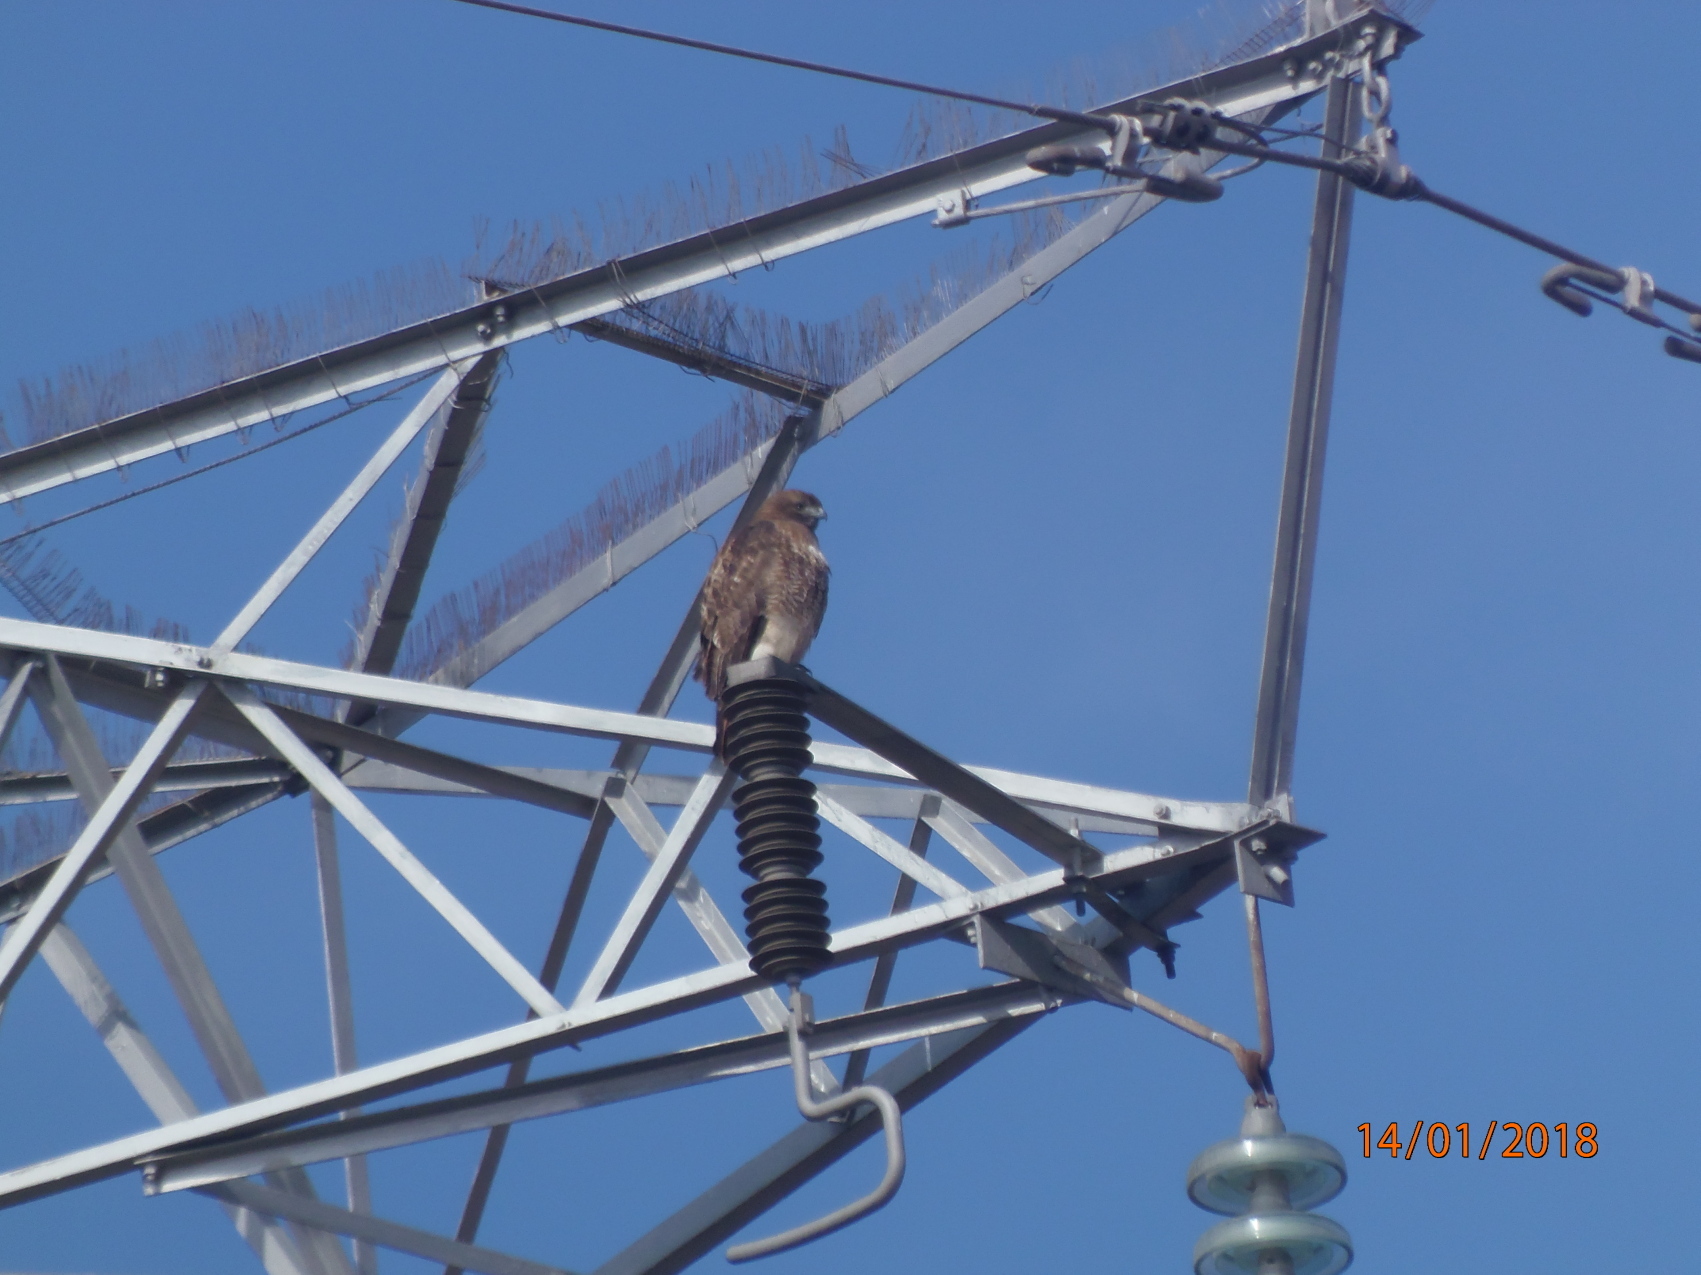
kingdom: Animalia
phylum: Chordata
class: Aves
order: Accipitriformes
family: Accipitridae
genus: Buteo
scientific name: Buteo jamaicensis
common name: Red-tailed hawk
